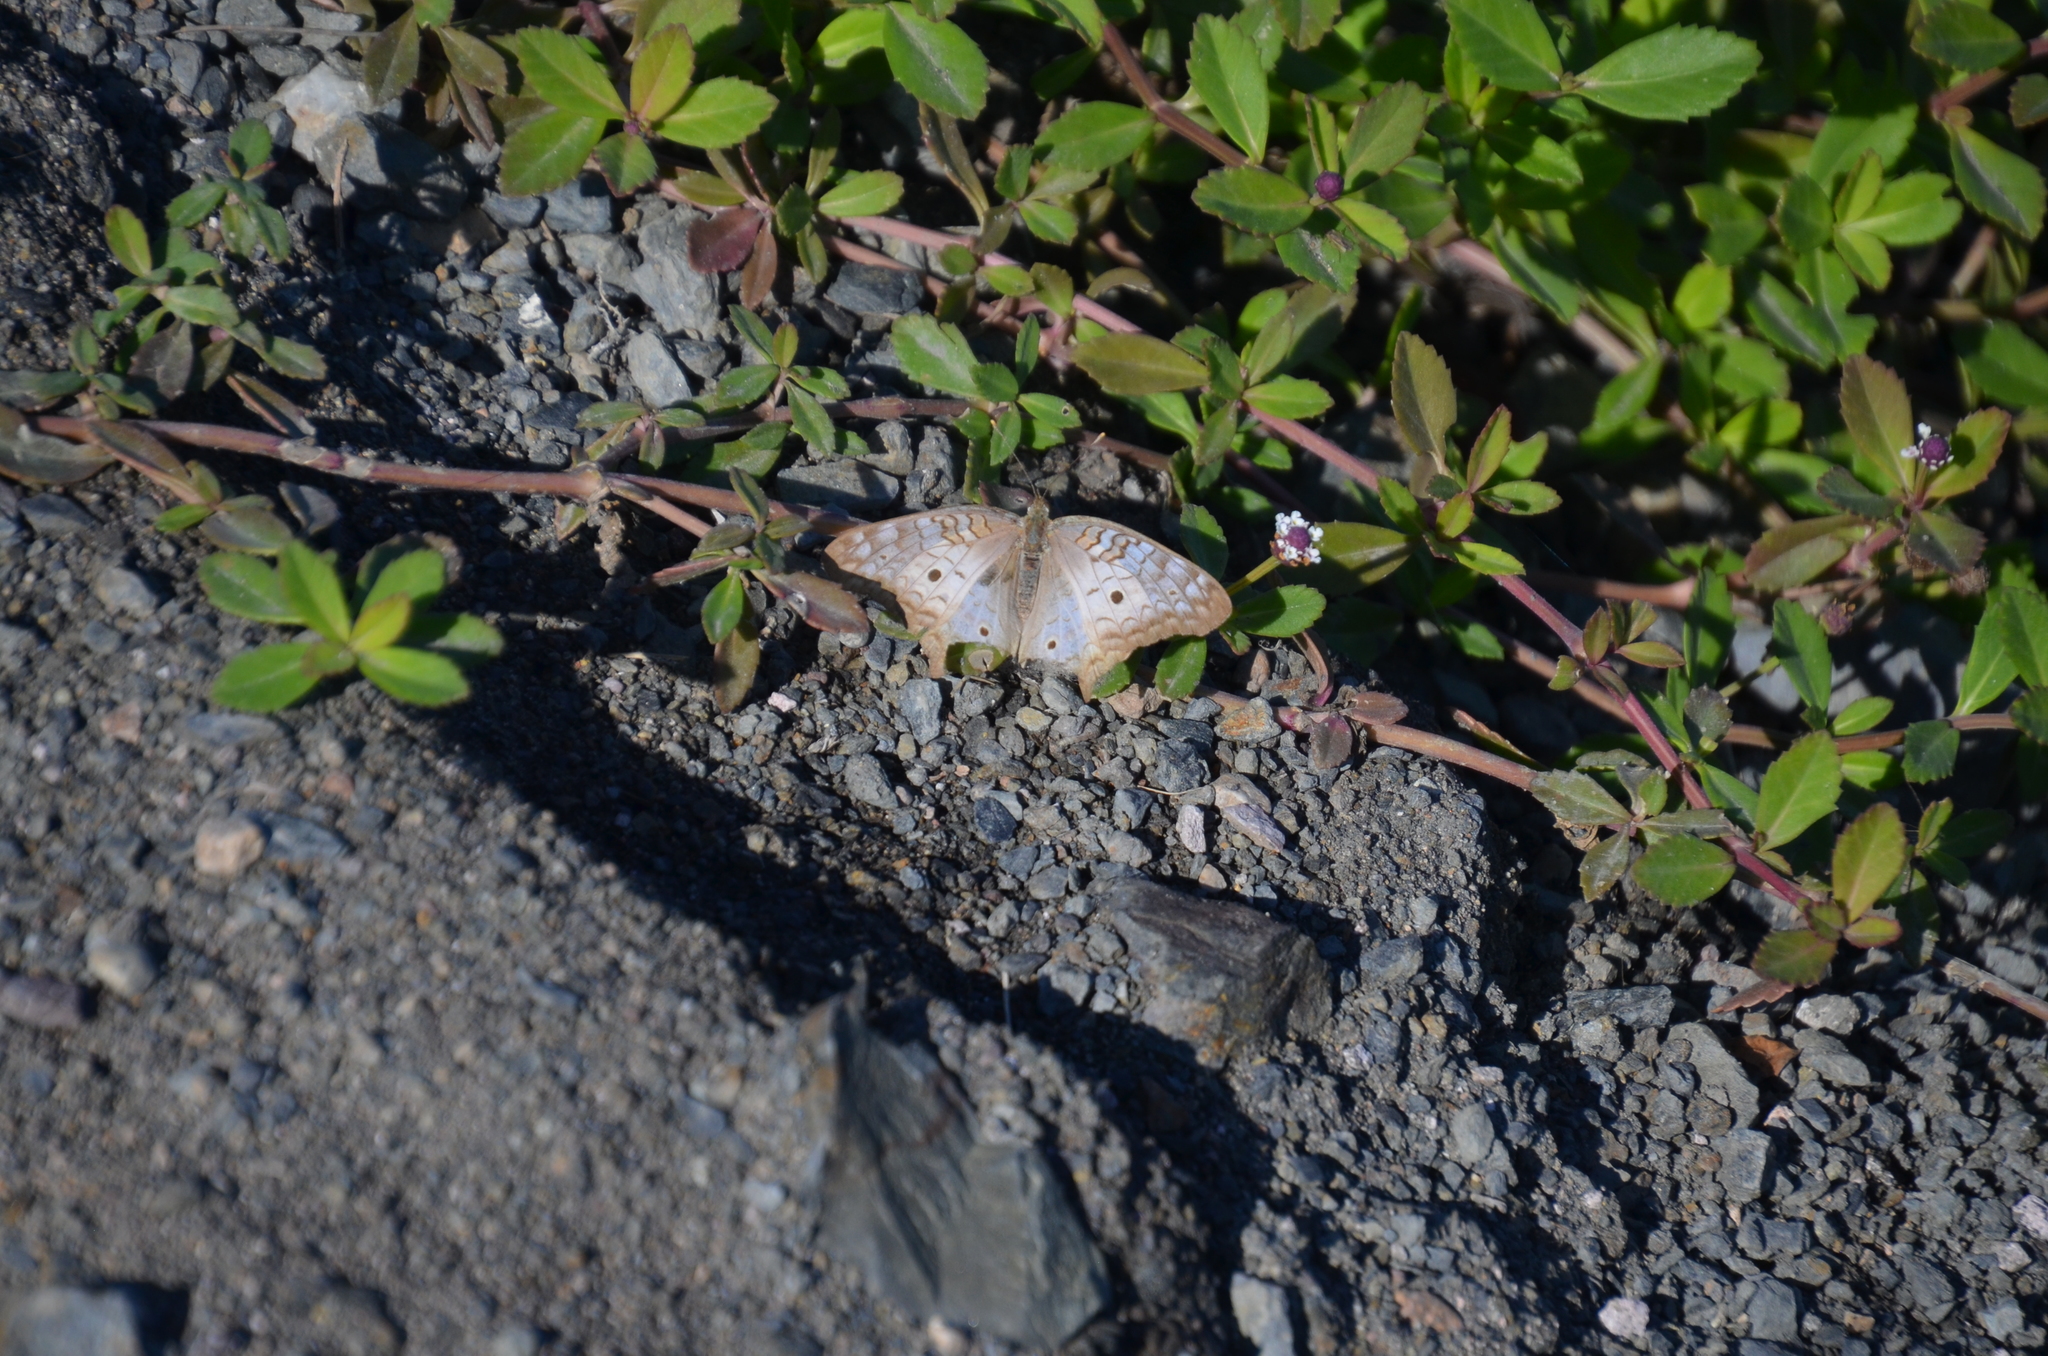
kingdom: Animalia
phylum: Arthropoda
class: Insecta
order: Lepidoptera
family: Nymphalidae
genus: Anartia
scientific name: Anartia jatrophae
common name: White peacock
